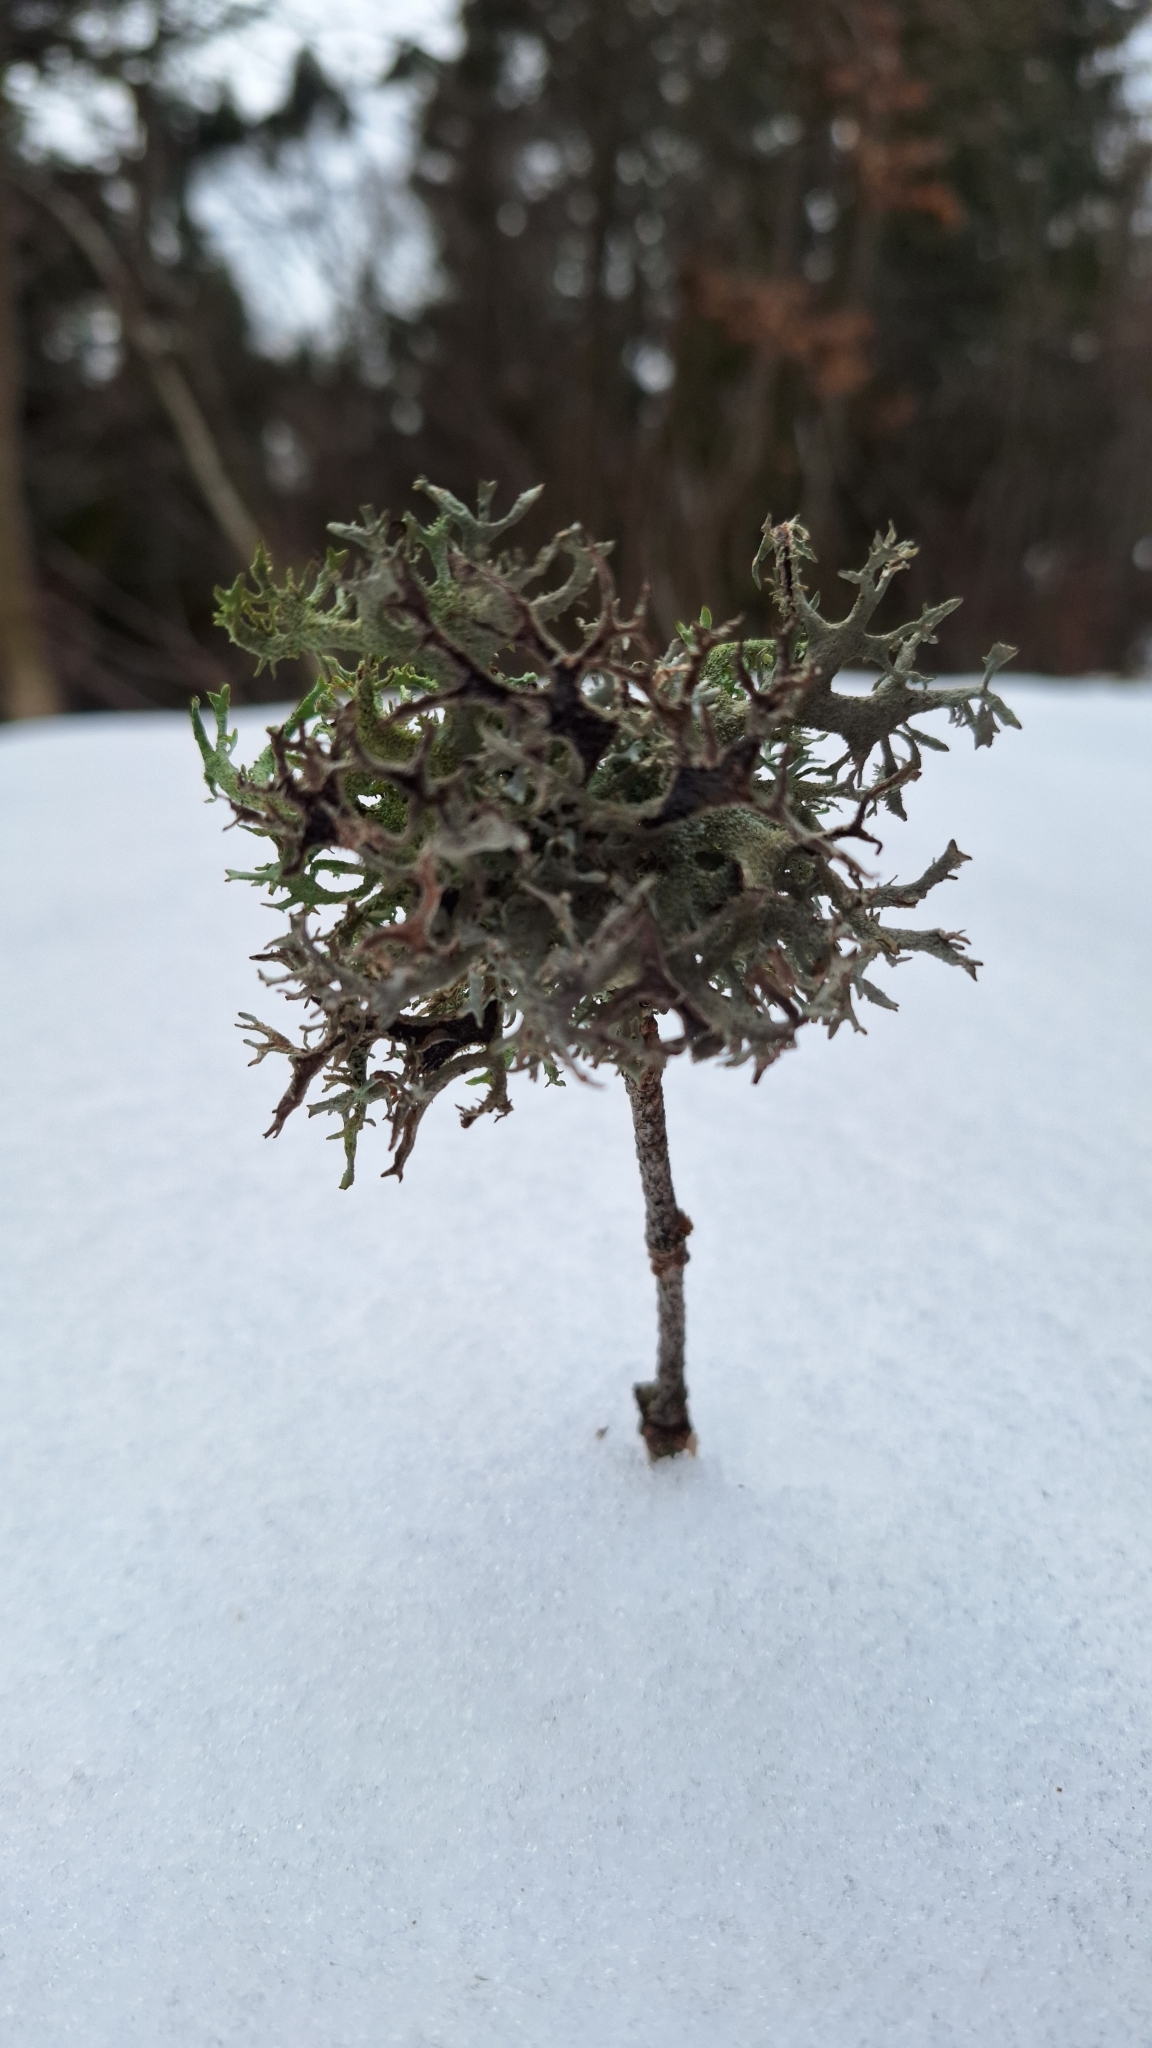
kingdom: Fungi
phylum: Ascomycota
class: Lecanoromycetes
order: Lecanorales
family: Parmeliaceae
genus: Pseudevernia
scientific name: Pseudevernia furfuracea
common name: Tree moss
